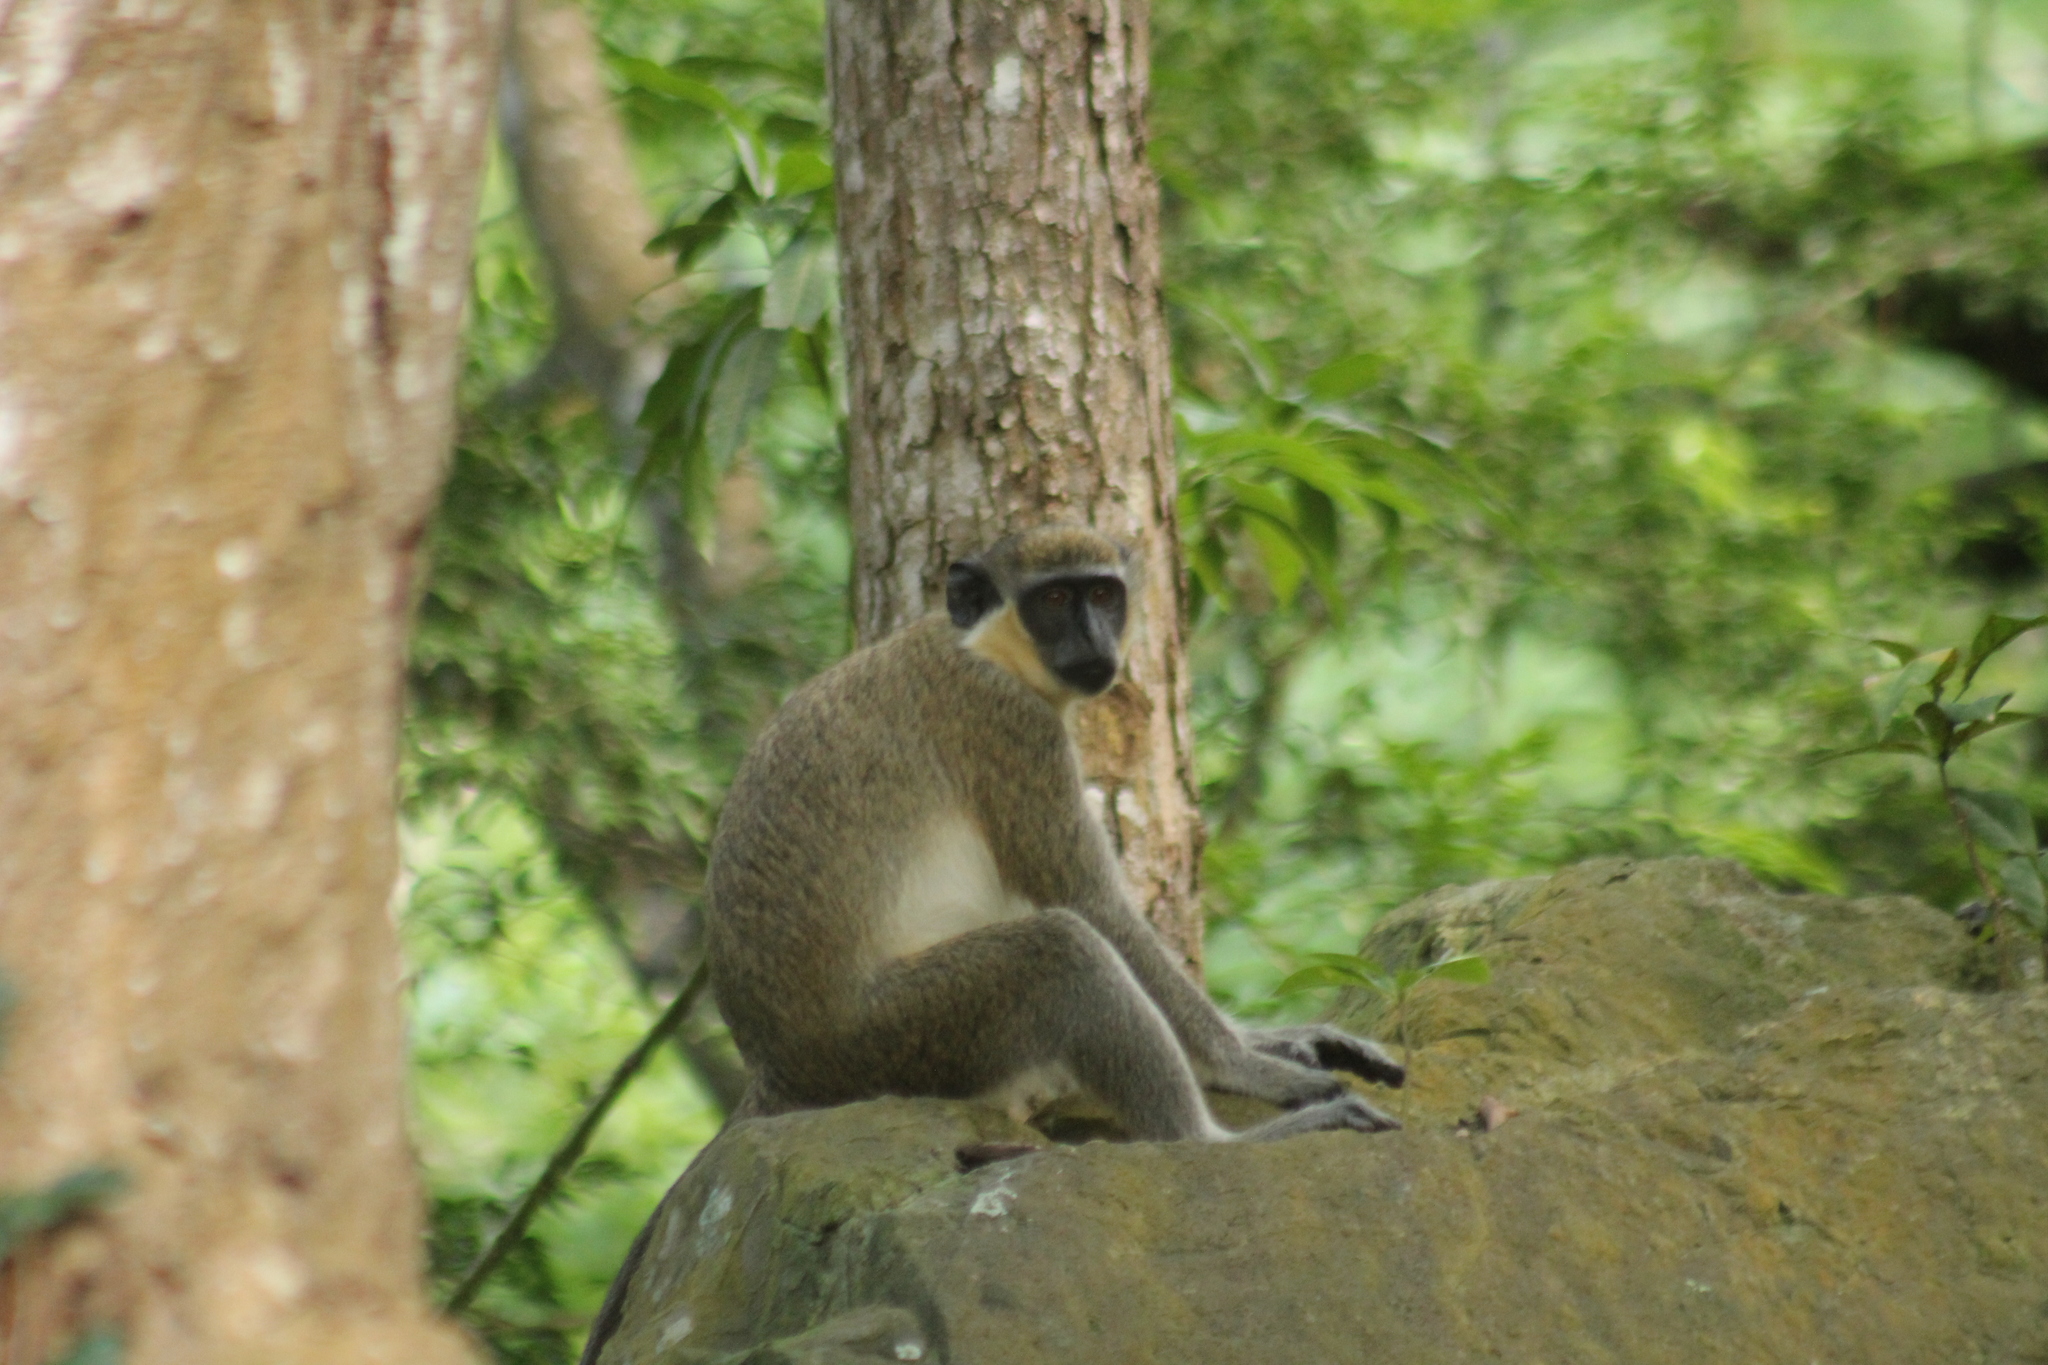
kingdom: Animalia
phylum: Chordata
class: Mammalia
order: Primates
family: Cercopithecidae
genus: Chlorocebus
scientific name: Chlorocebus sabaeus
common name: Green monkey
